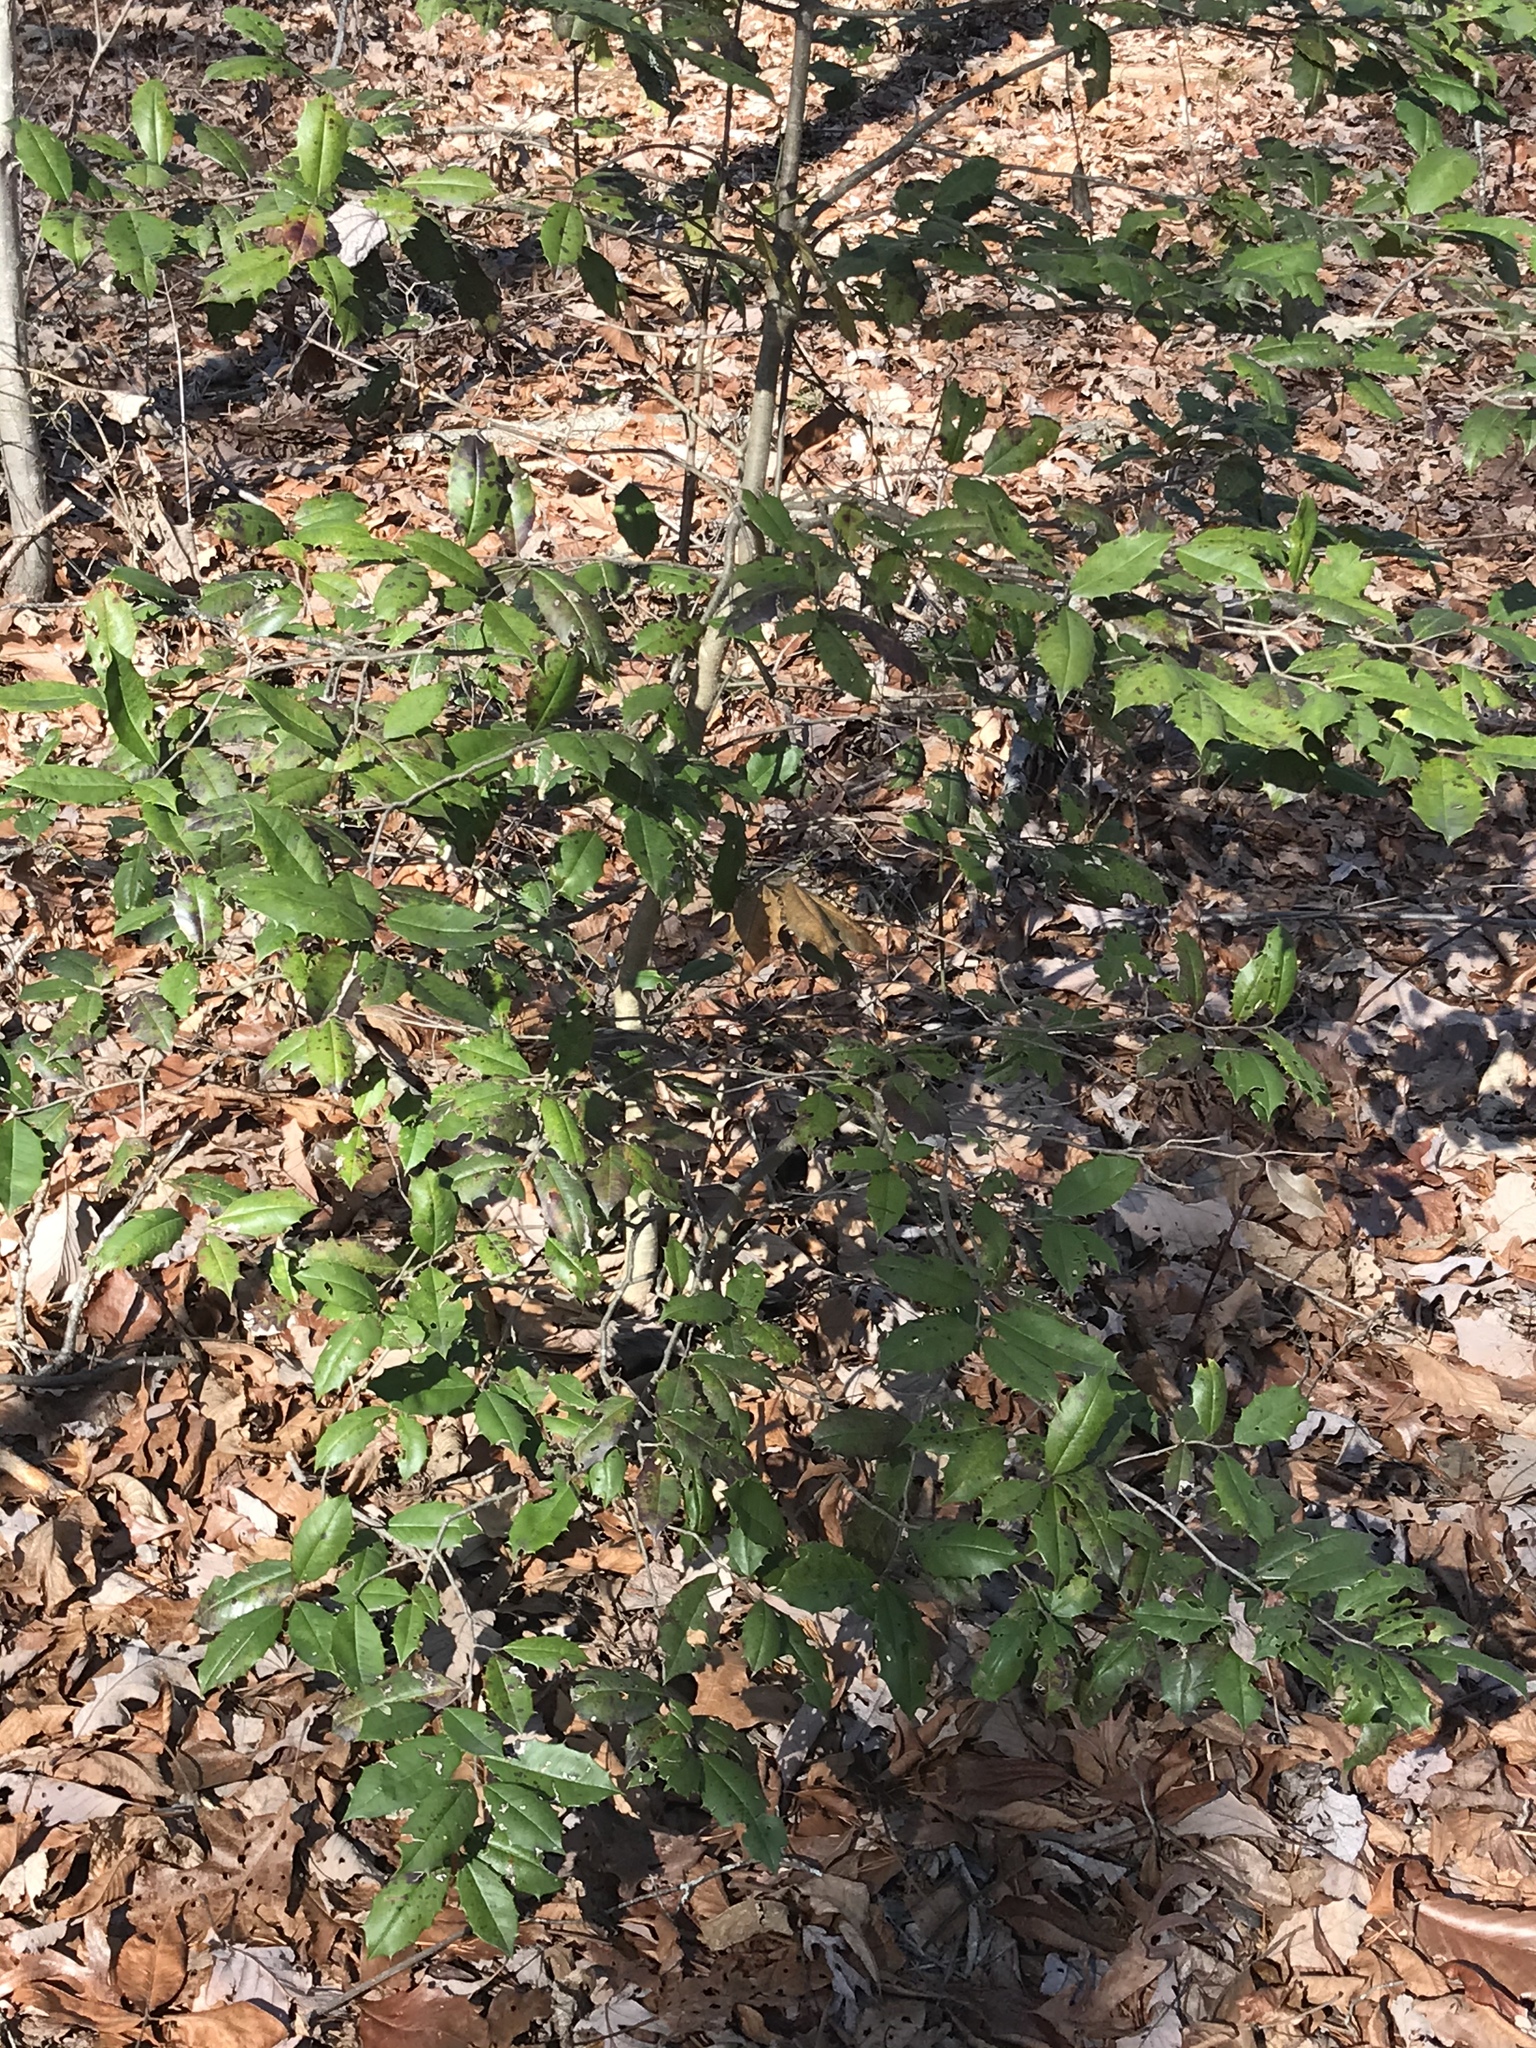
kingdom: Plantae
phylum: Tracheophyta
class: Magnoliopsida
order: Aquifoliales
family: Aquifoliaceae
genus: Ilex
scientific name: Ilex opaca
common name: American holly
